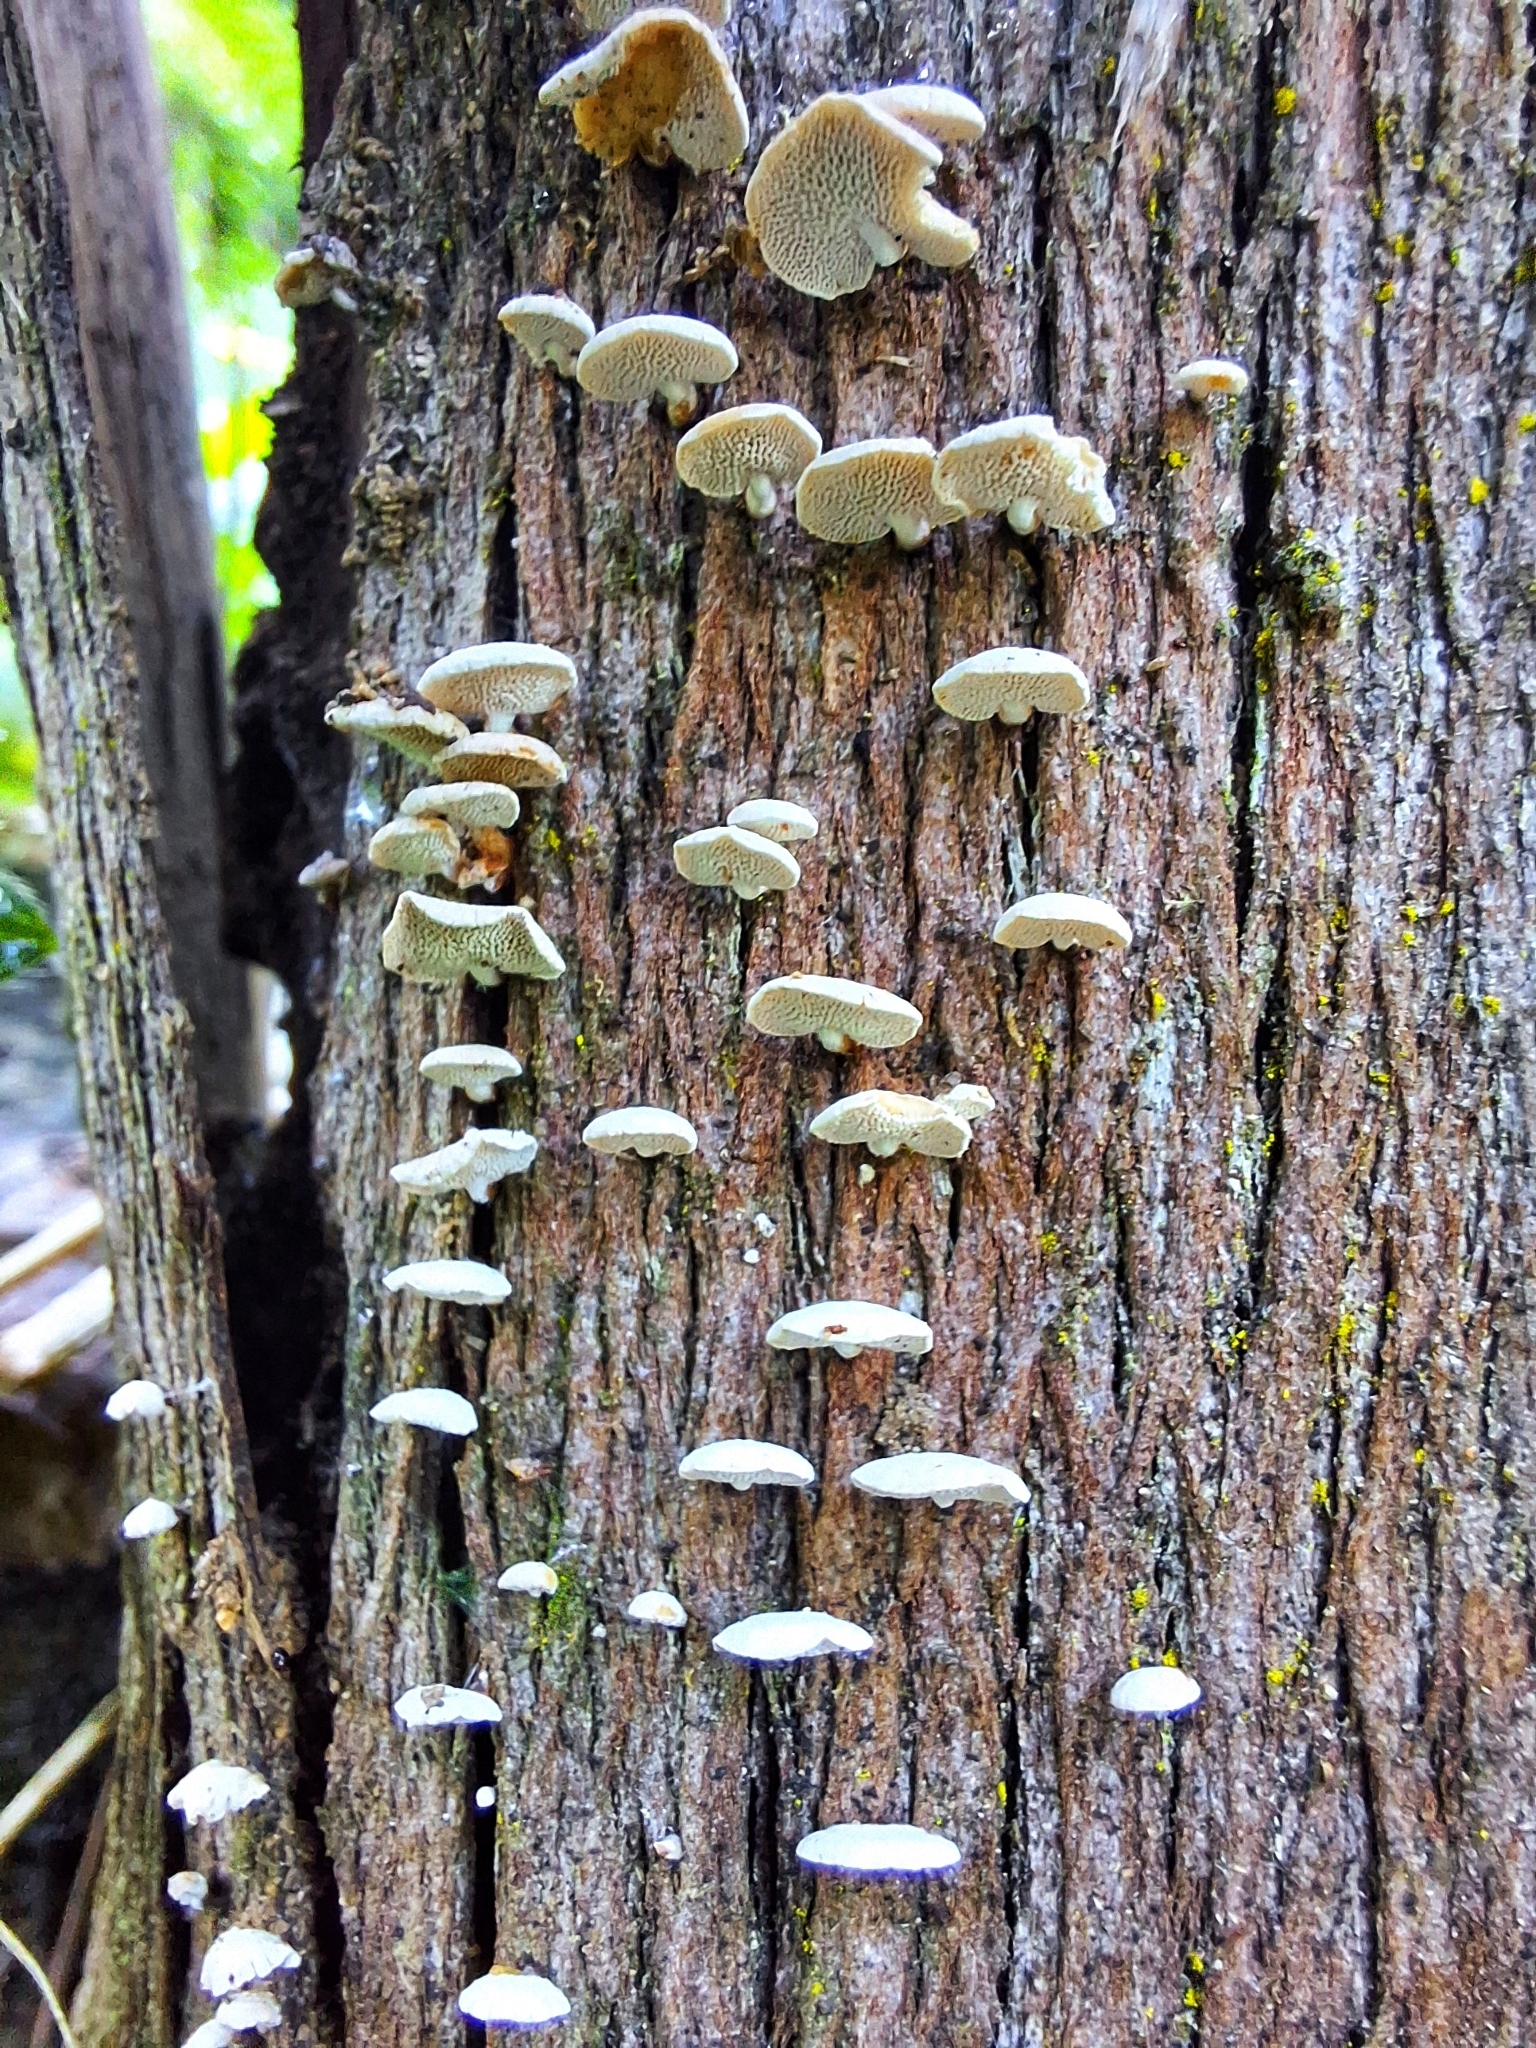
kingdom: Fungi
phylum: Basidiomycota
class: Agaricomycetes
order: Agaricales
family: Mycenaceae
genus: Panellus
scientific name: Panellus luxfilamentus
